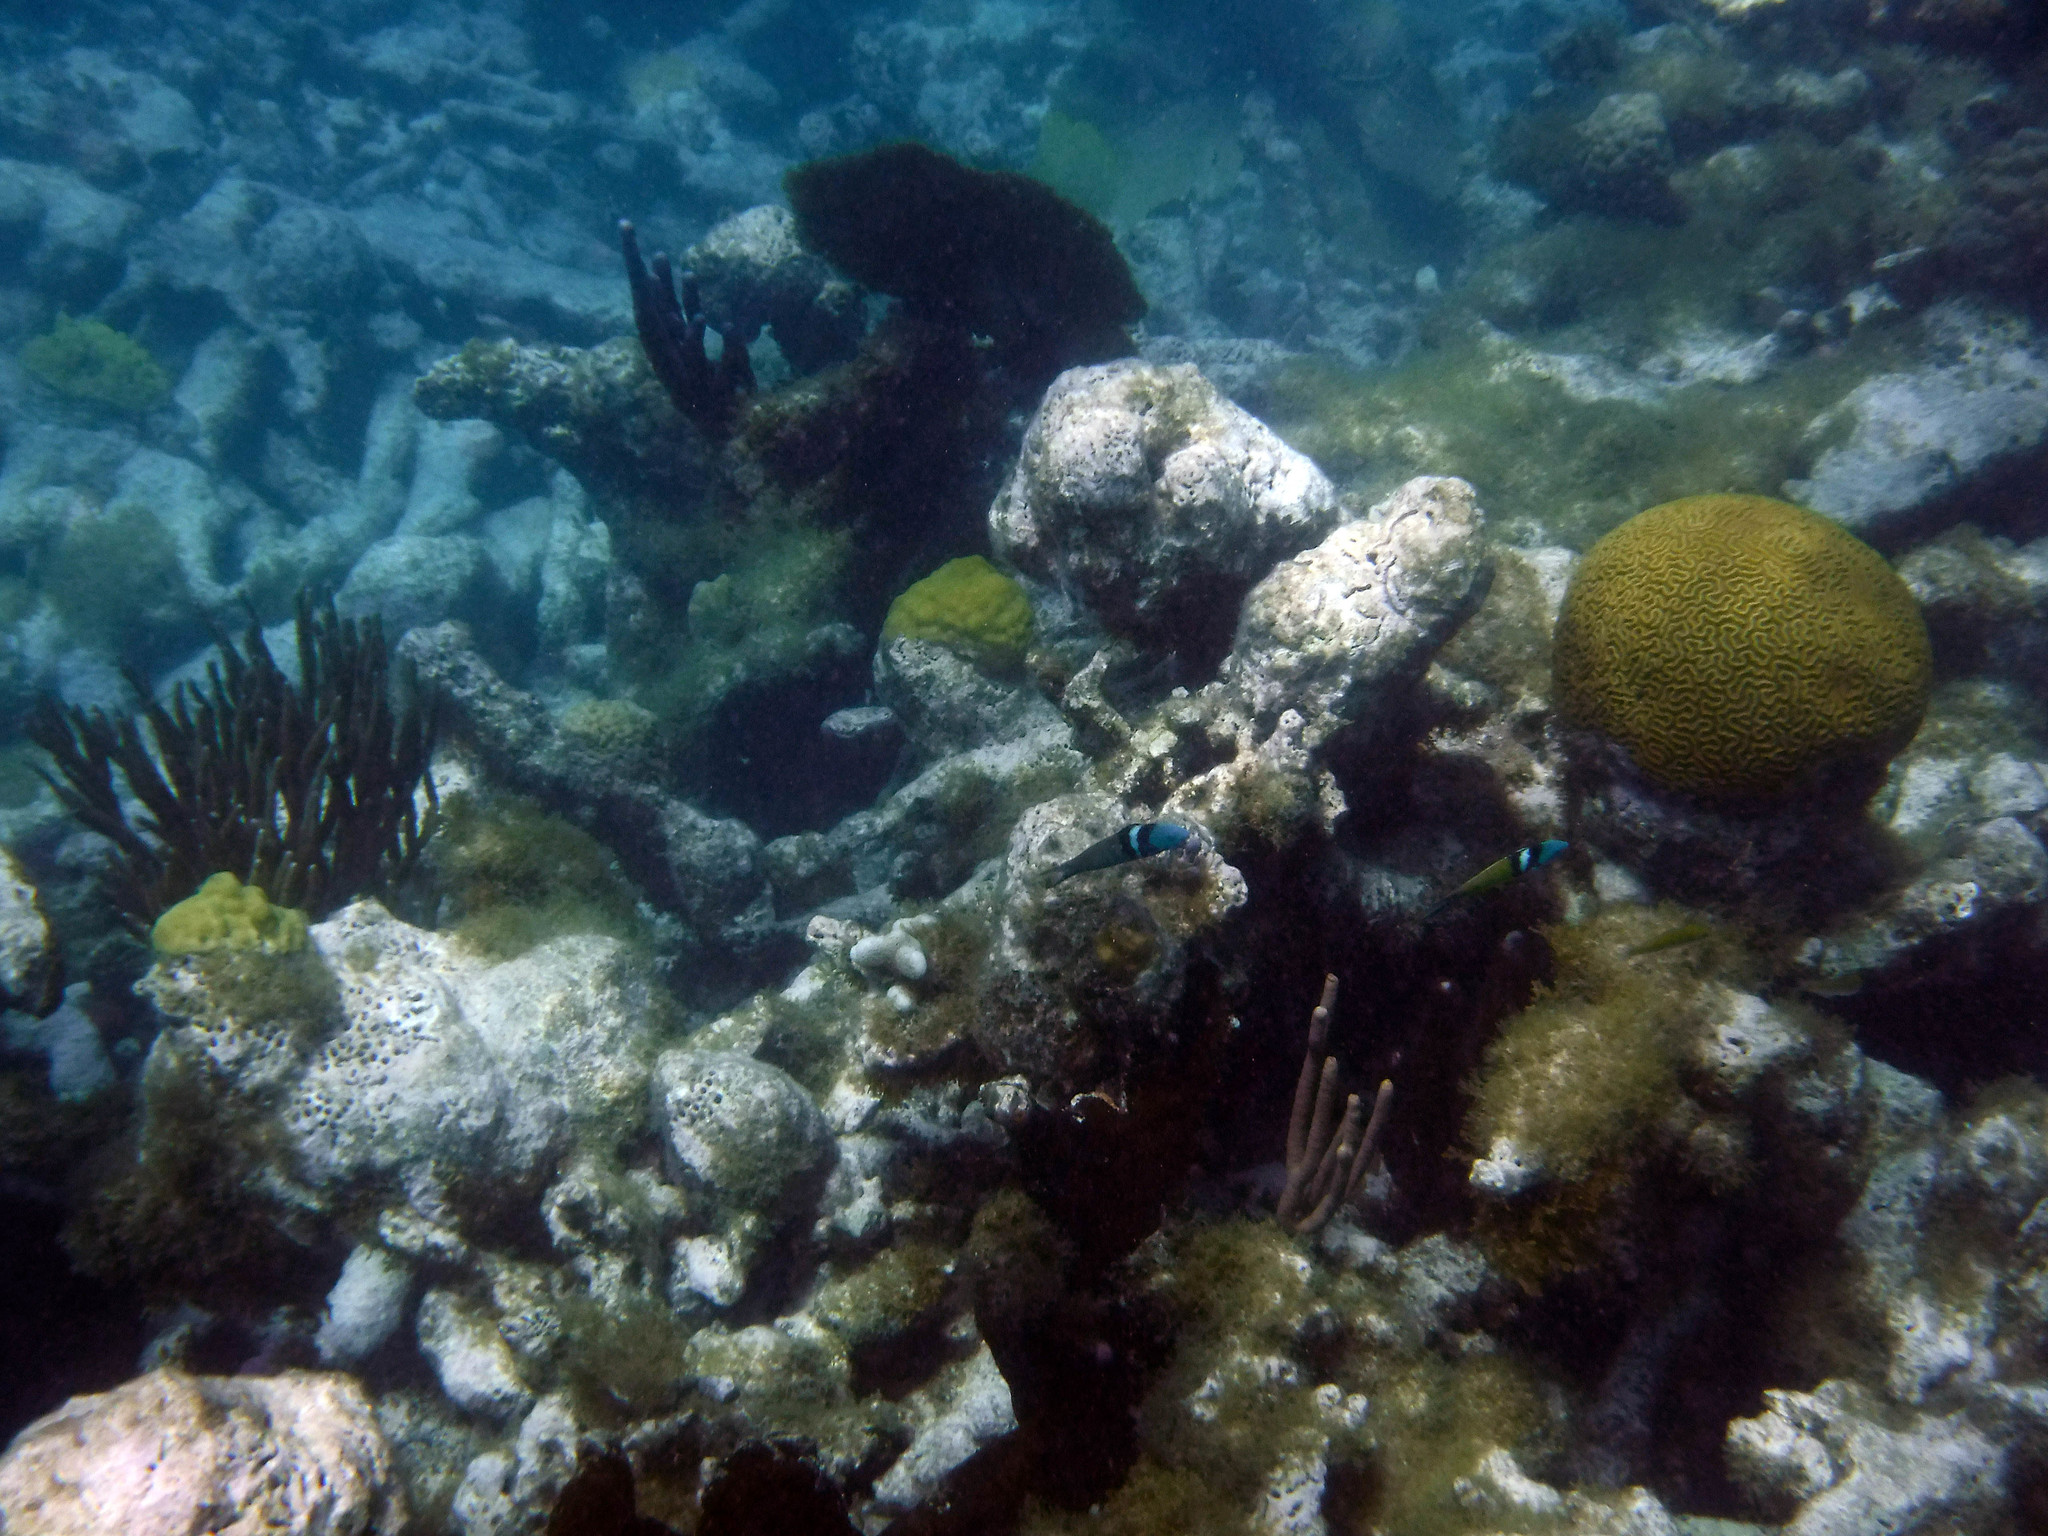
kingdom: Animalia
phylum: Chordata
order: Perciformes
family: Labridae
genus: Thalassoma
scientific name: Thalassoma bifasciatum
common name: Bluehead wrasse
